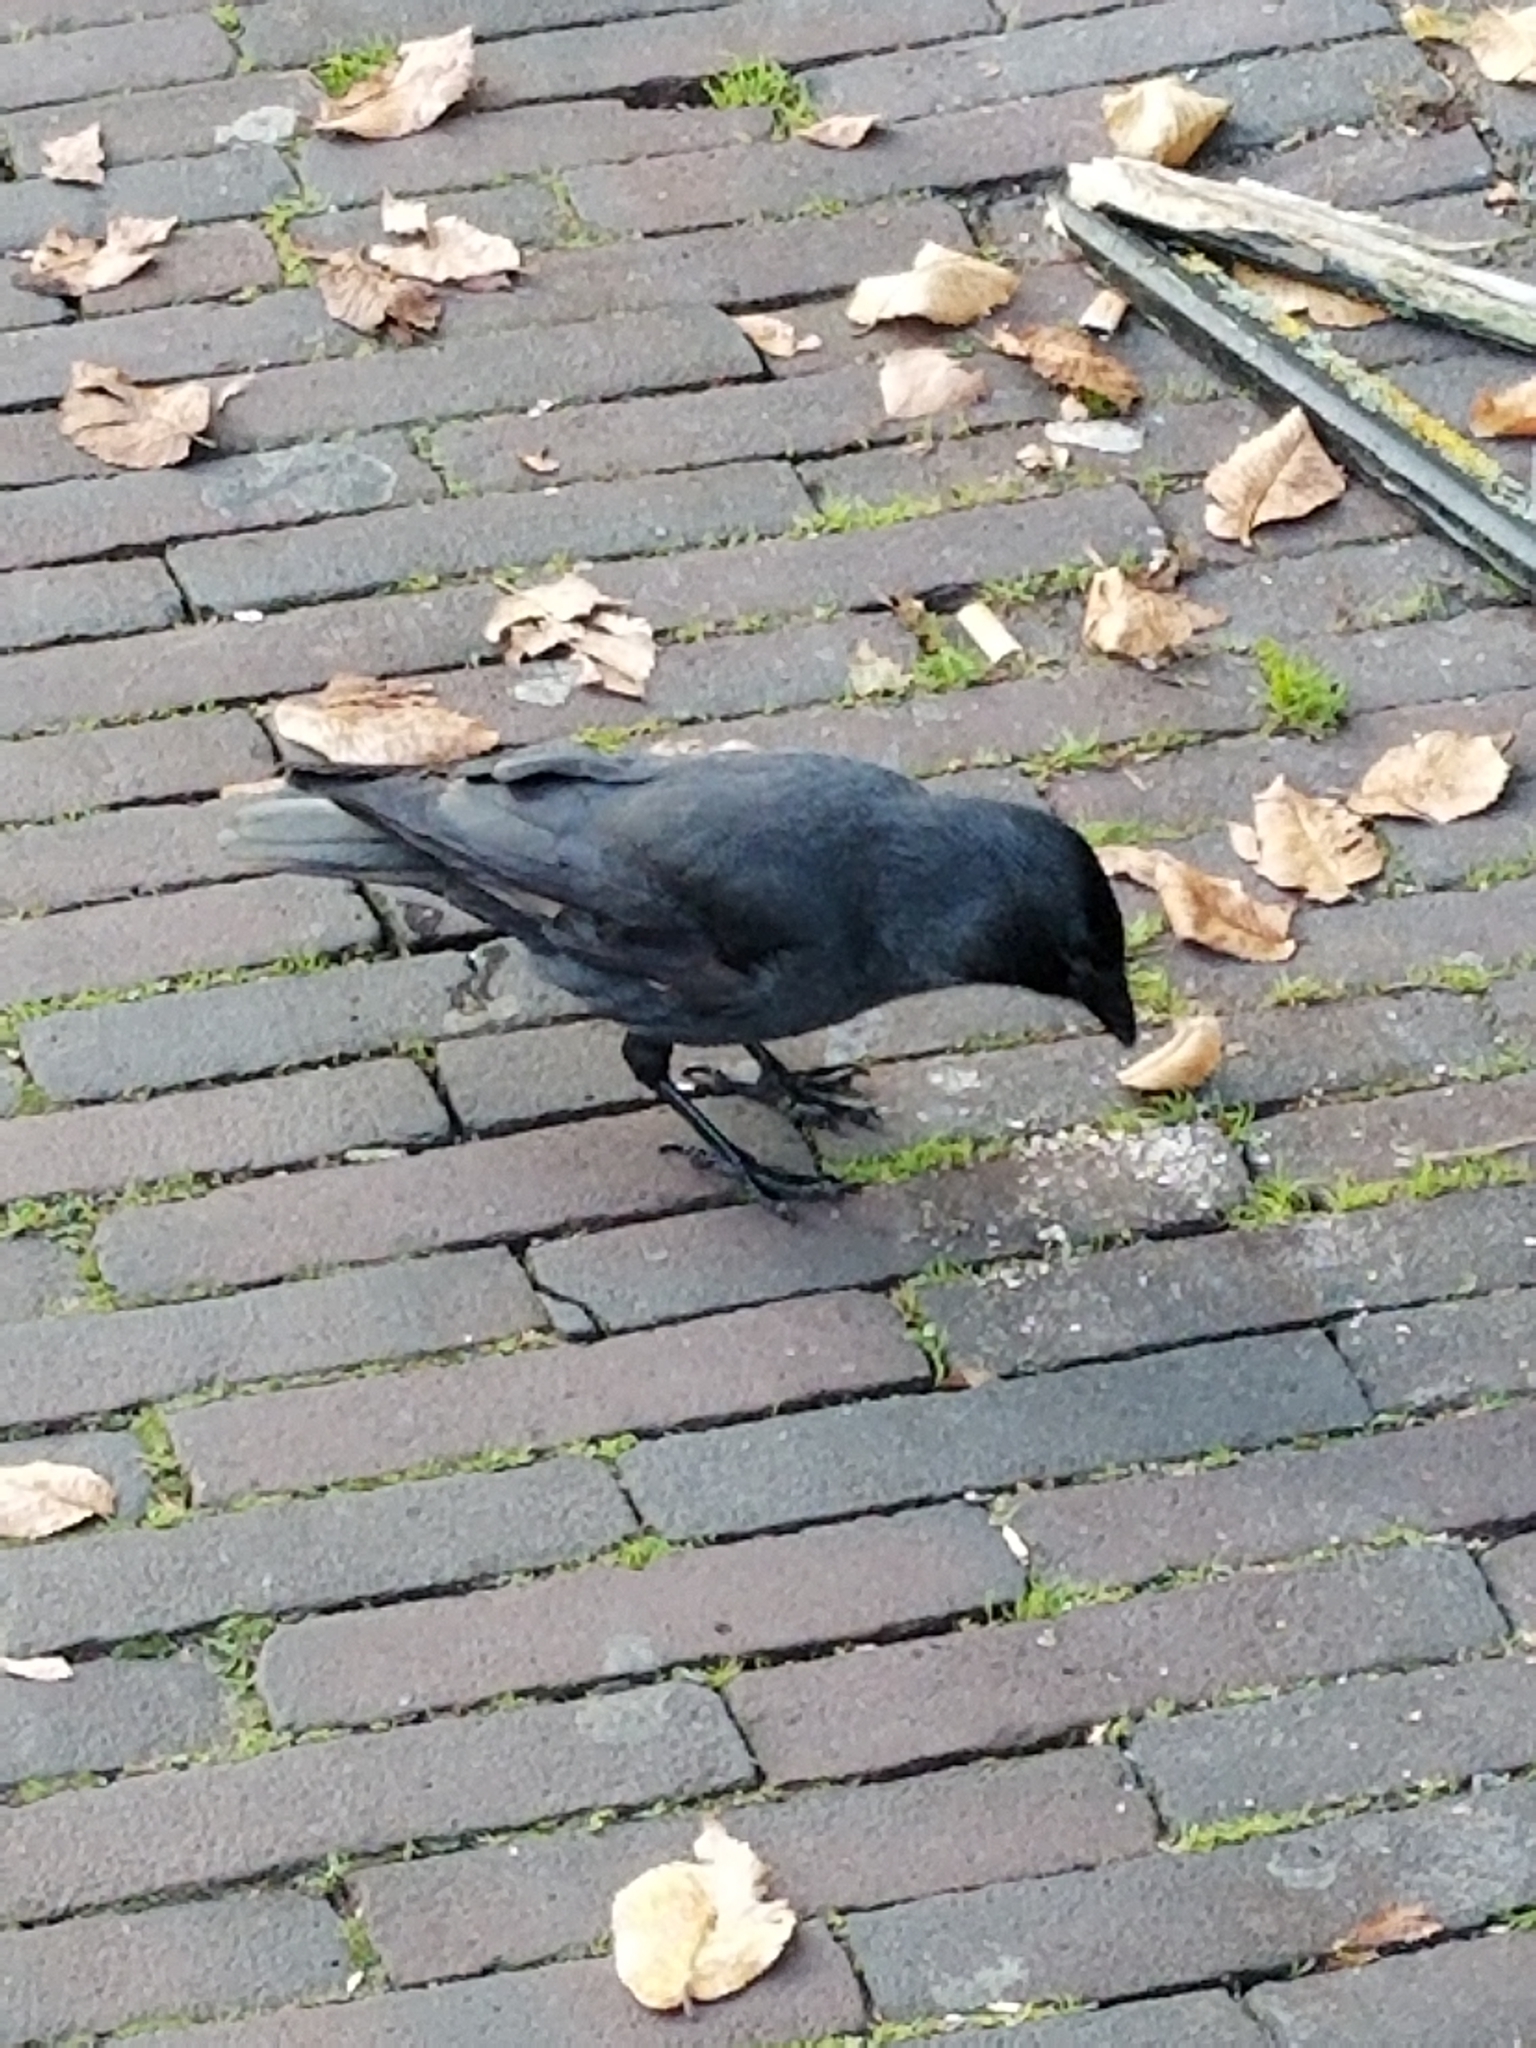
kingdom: Animalia
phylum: Chordata
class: Aves
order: Passeriformes
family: Corvidae
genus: Coloeus
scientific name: Coloeus monedula
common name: Western jackdaw
